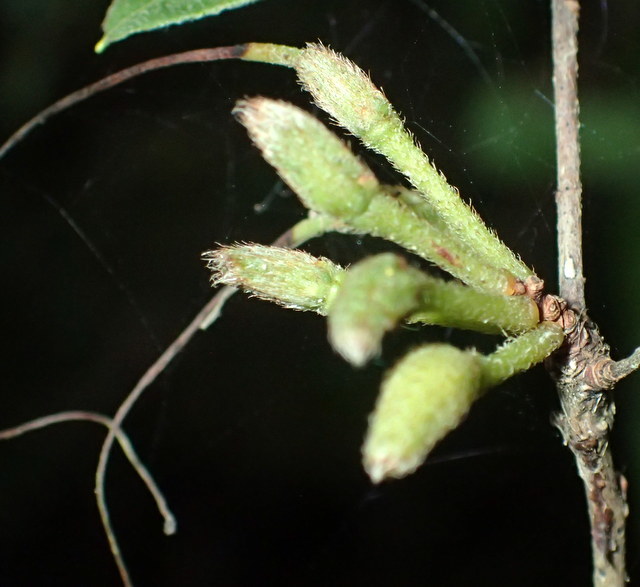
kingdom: Plantae
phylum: Tracheophyta
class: Magnoliopsida
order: Ericales
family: Ericaceae
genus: Rhododendron
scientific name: Rhododendron serrulatum
